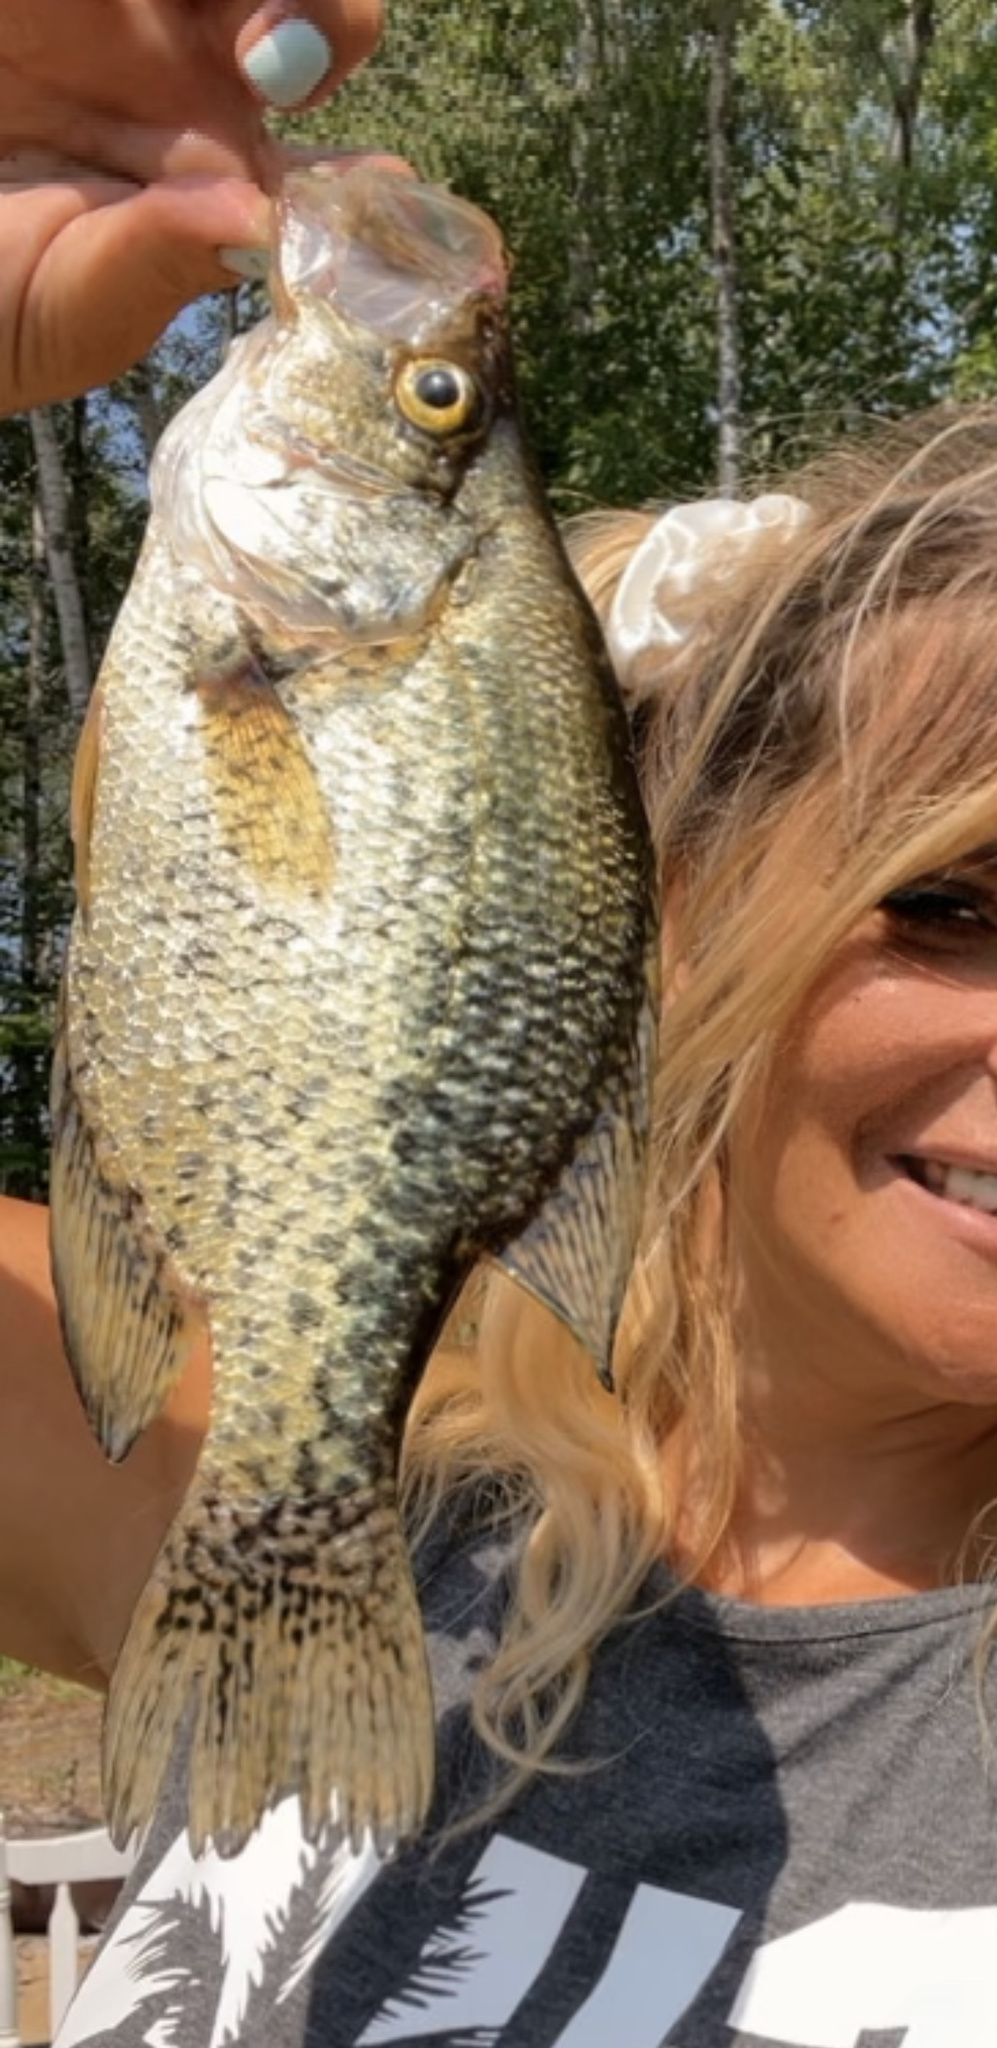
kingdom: Animalia
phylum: Chordata
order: Perciformes
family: Centrarchidae
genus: Pomoxis
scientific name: Pomoxis nigromaculatus
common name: Black crappie
